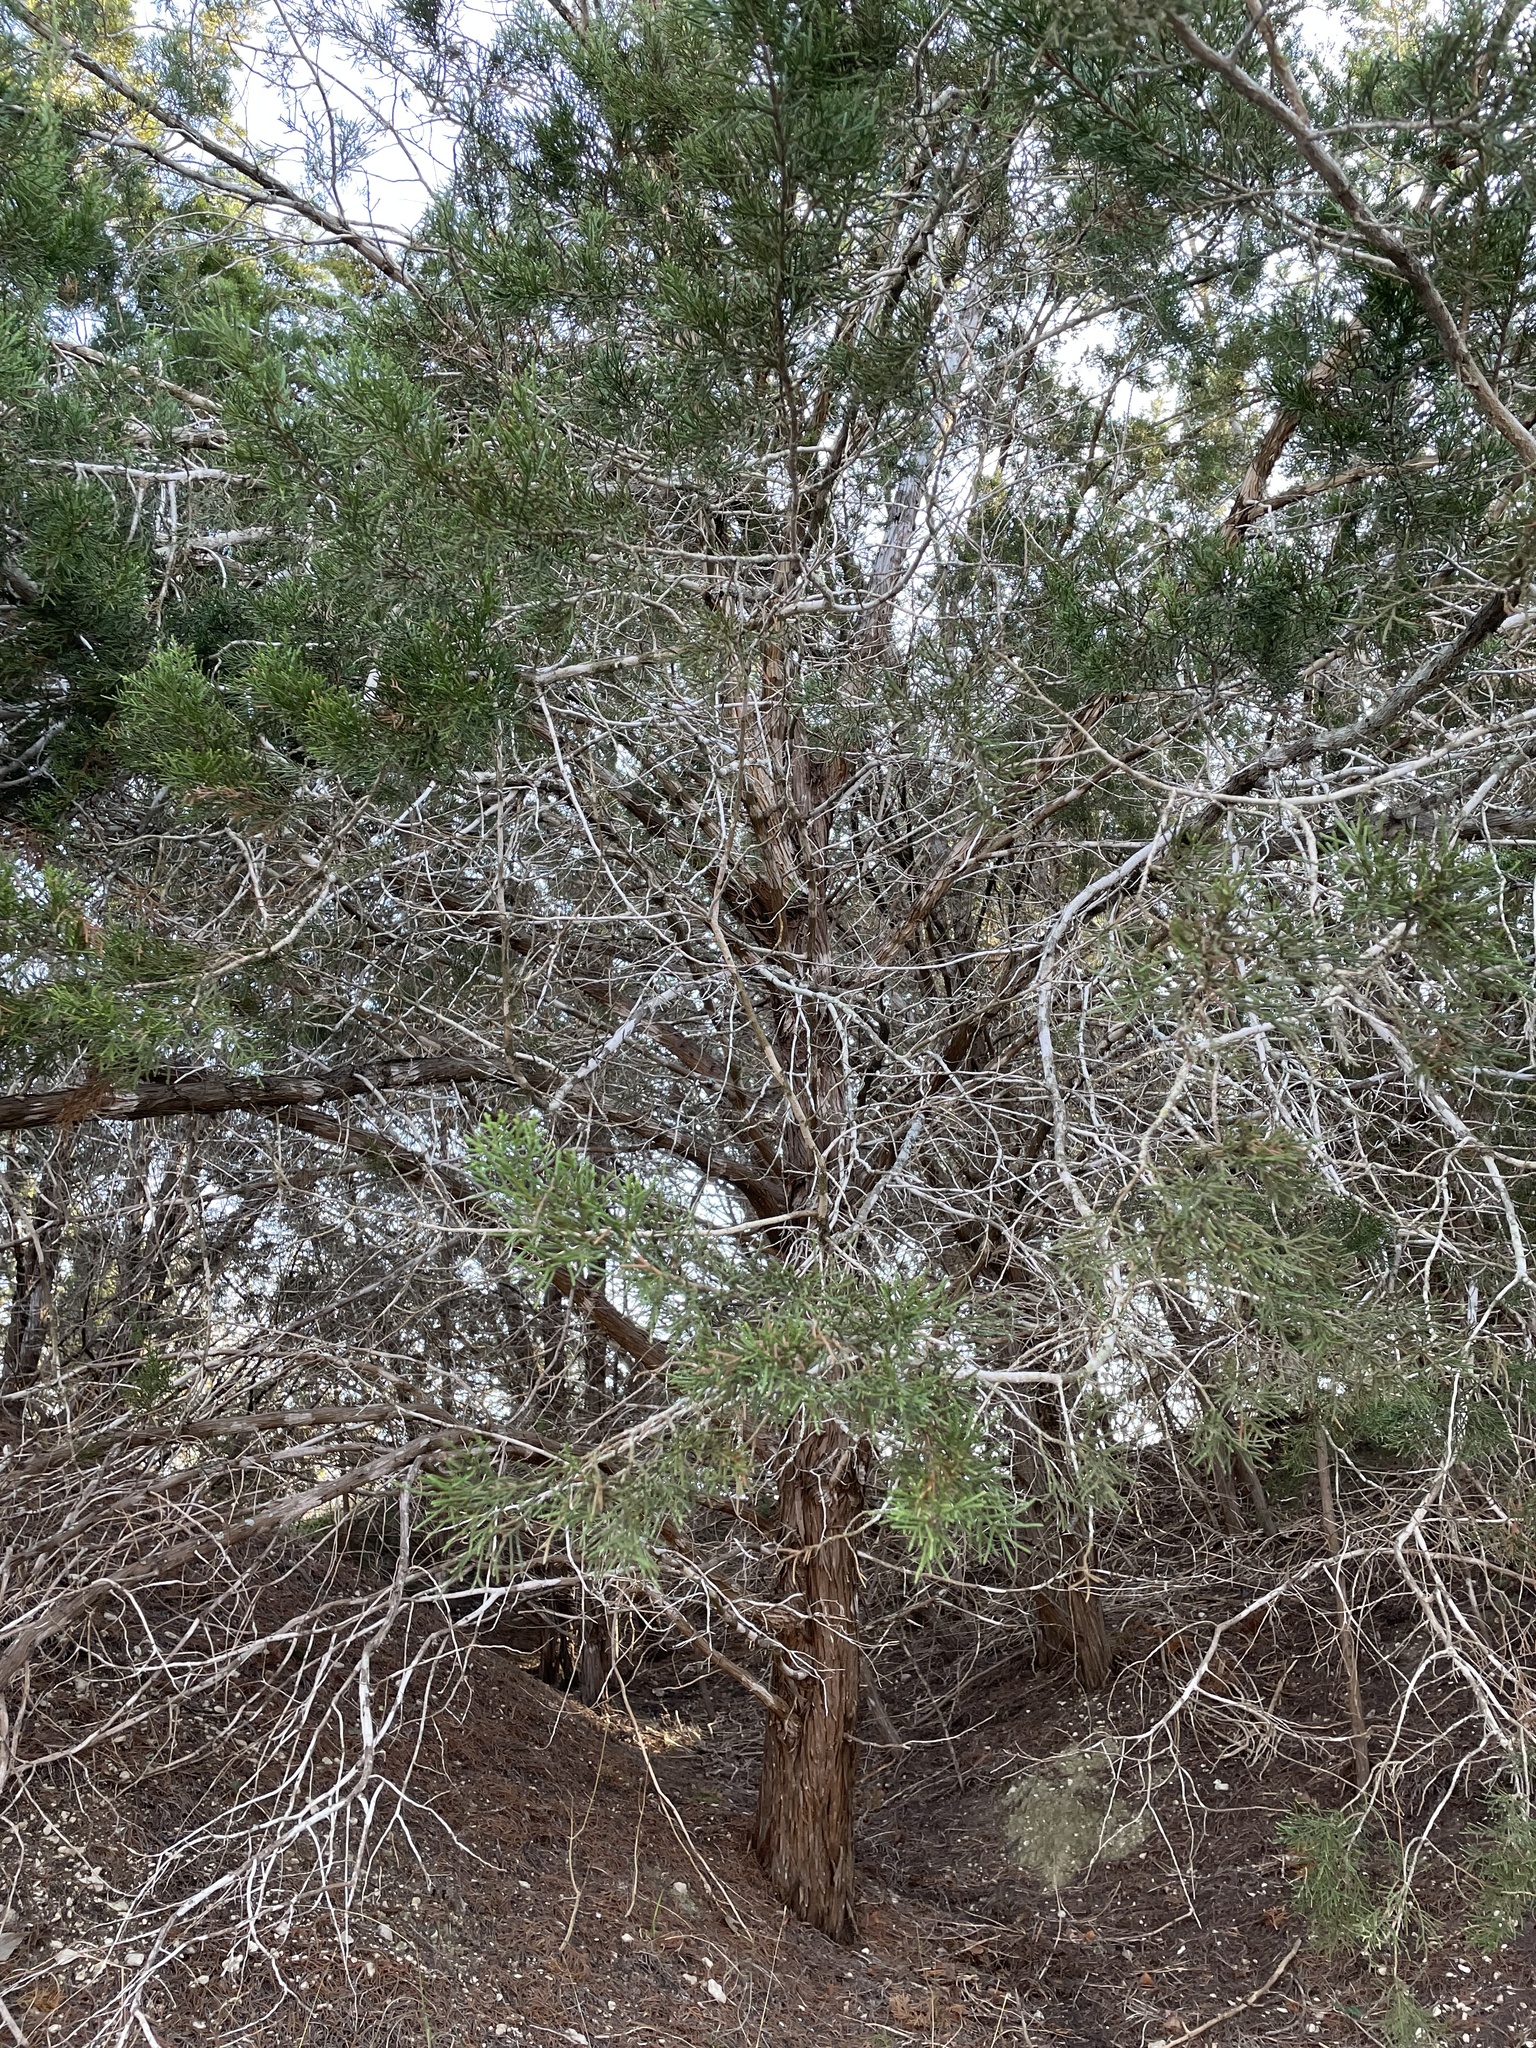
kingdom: Plantae
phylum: Tracheophyta
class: Pinopsida
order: Pinales
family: Cupressaceae
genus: Juniperus
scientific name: Juniperus ashei
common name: Mexican juniper
